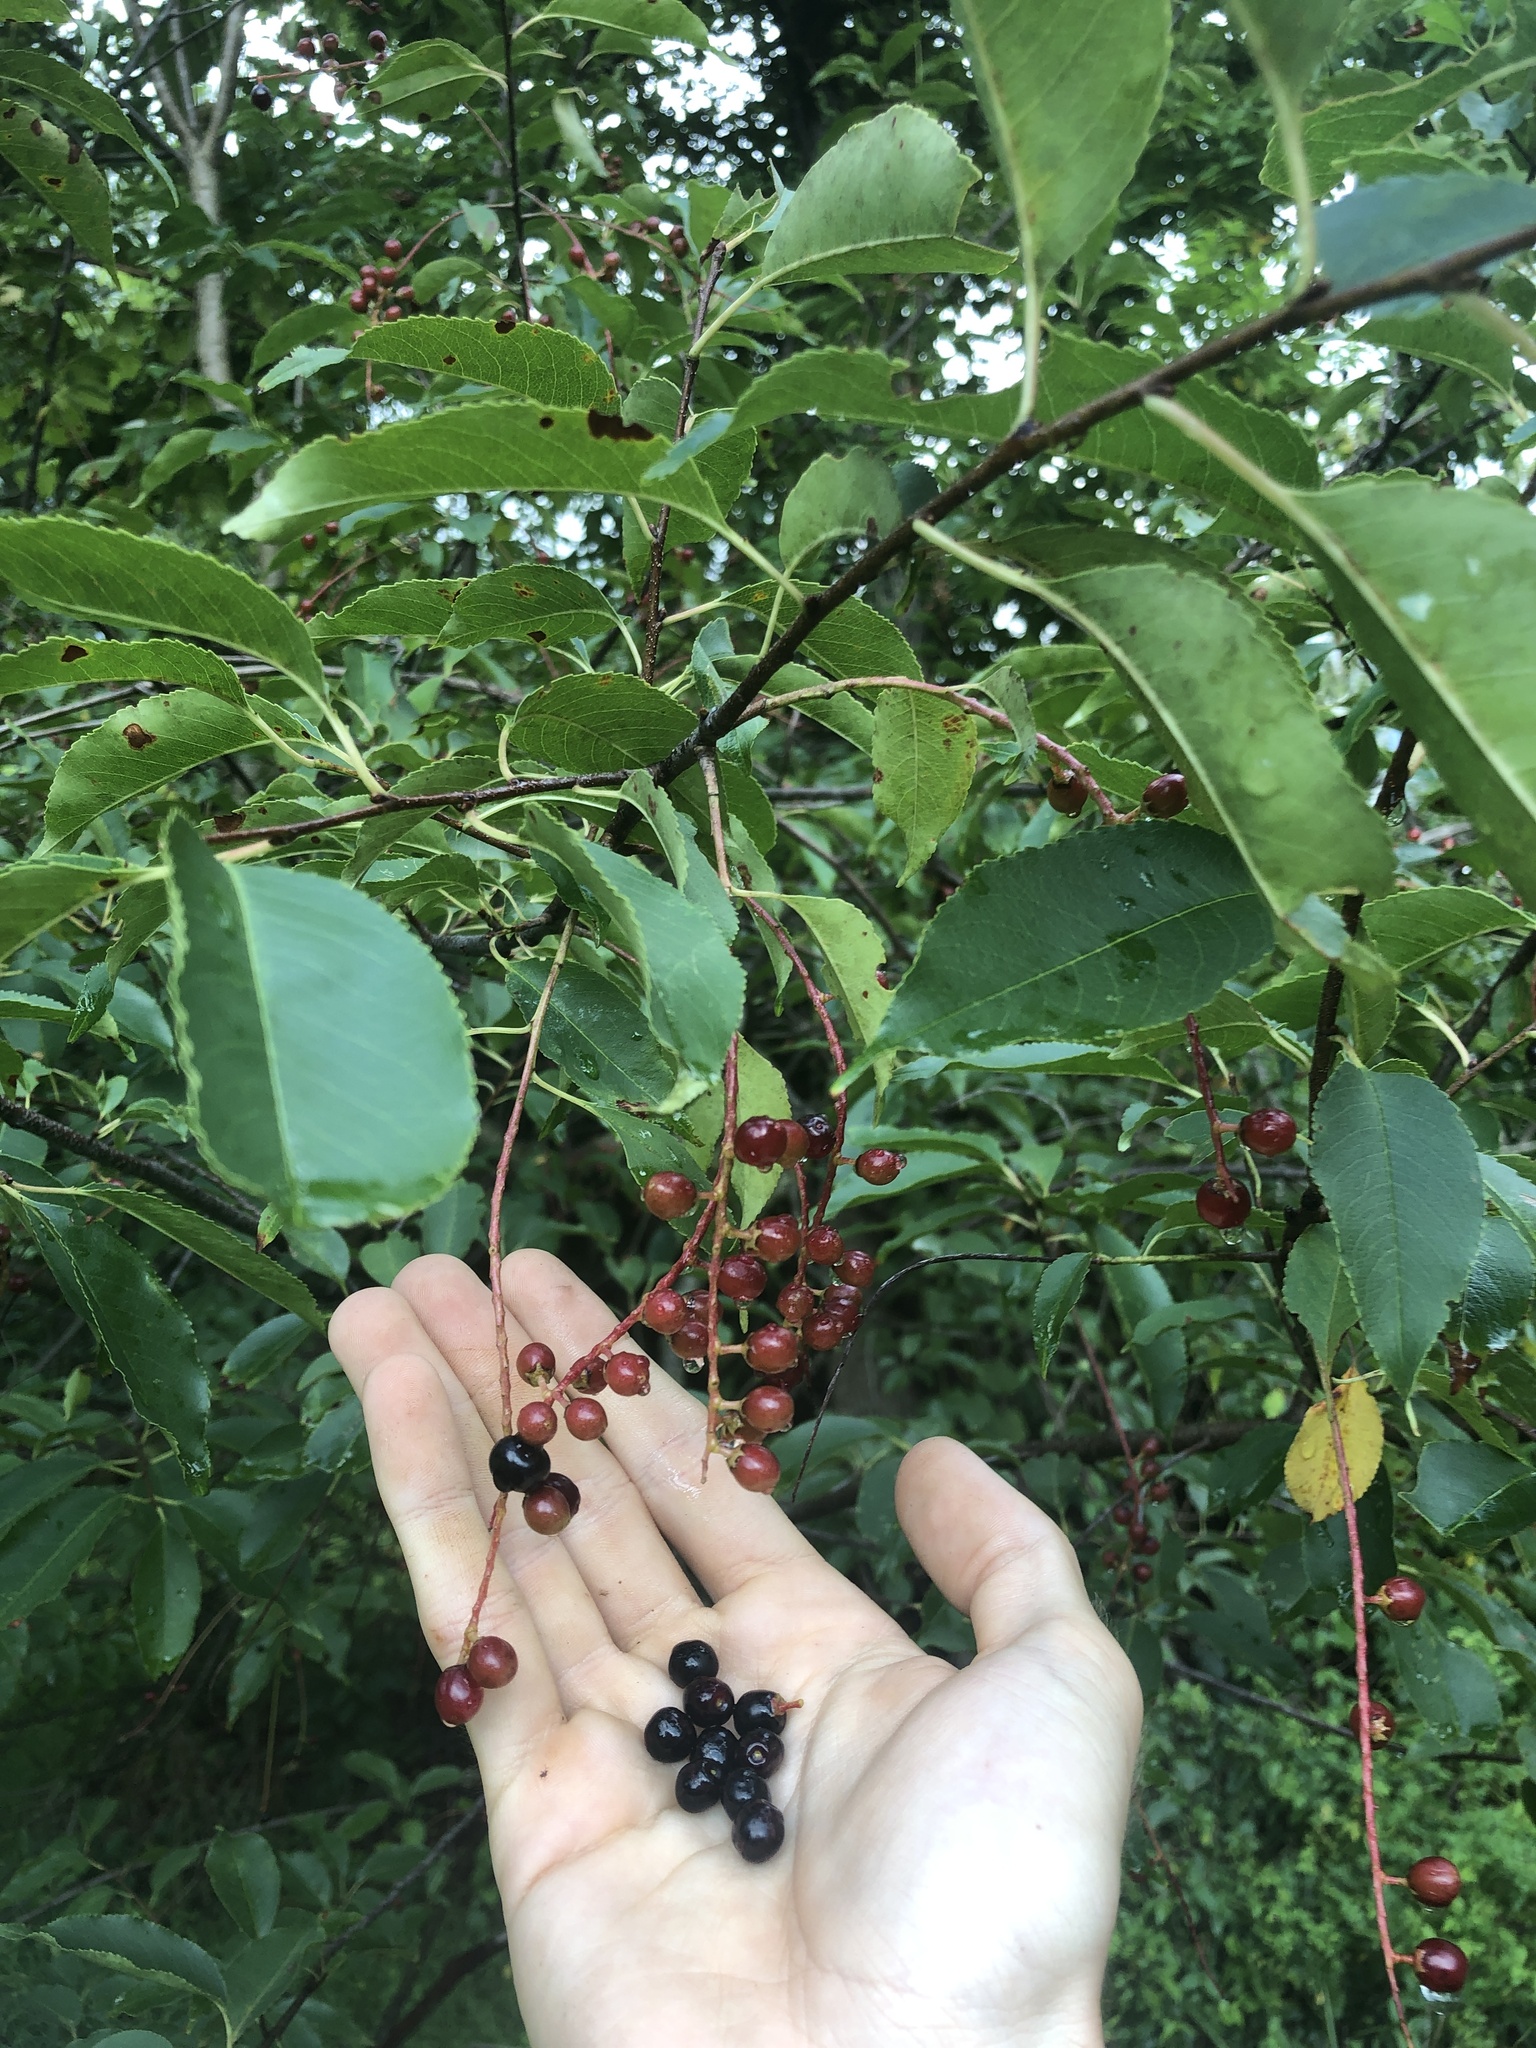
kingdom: Plantae
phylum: Tracheophyta
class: Magnoliopsida
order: Rosales
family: Rosaceae
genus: Prunus
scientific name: Prunus serotina
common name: Black cherry
